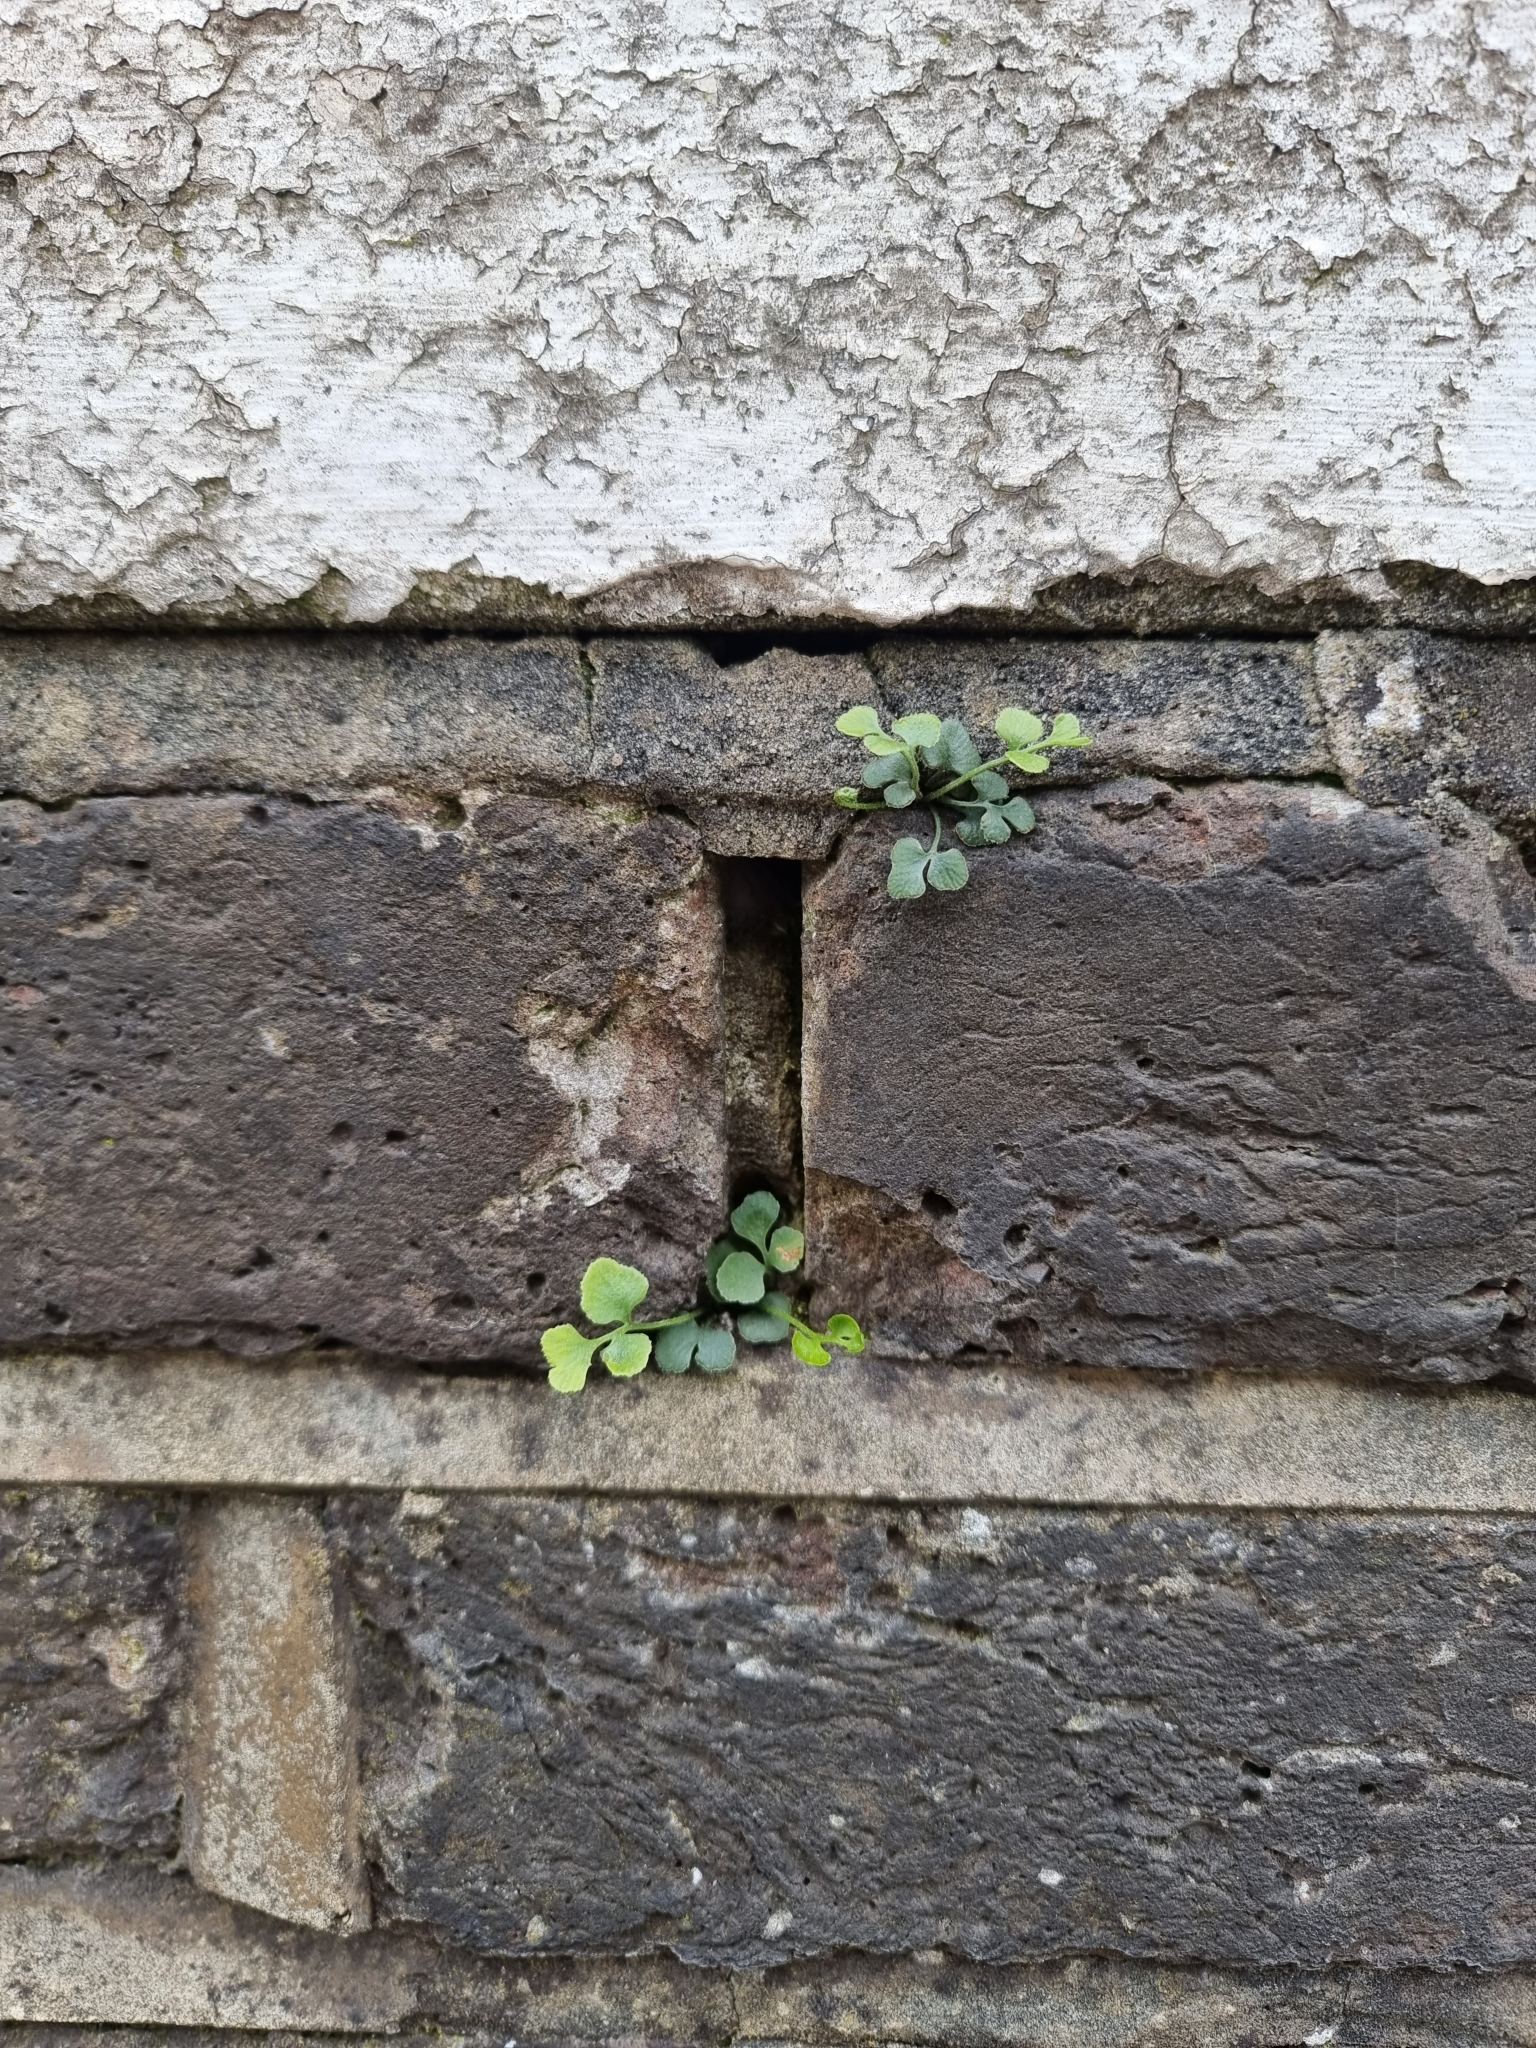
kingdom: Plantae
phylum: Tracheophyta
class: Polypodiopsida
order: Polypodiales
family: Aspleniaceae
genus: Asplenium
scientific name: Asplenium ruta-muraria
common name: Wall-rue
